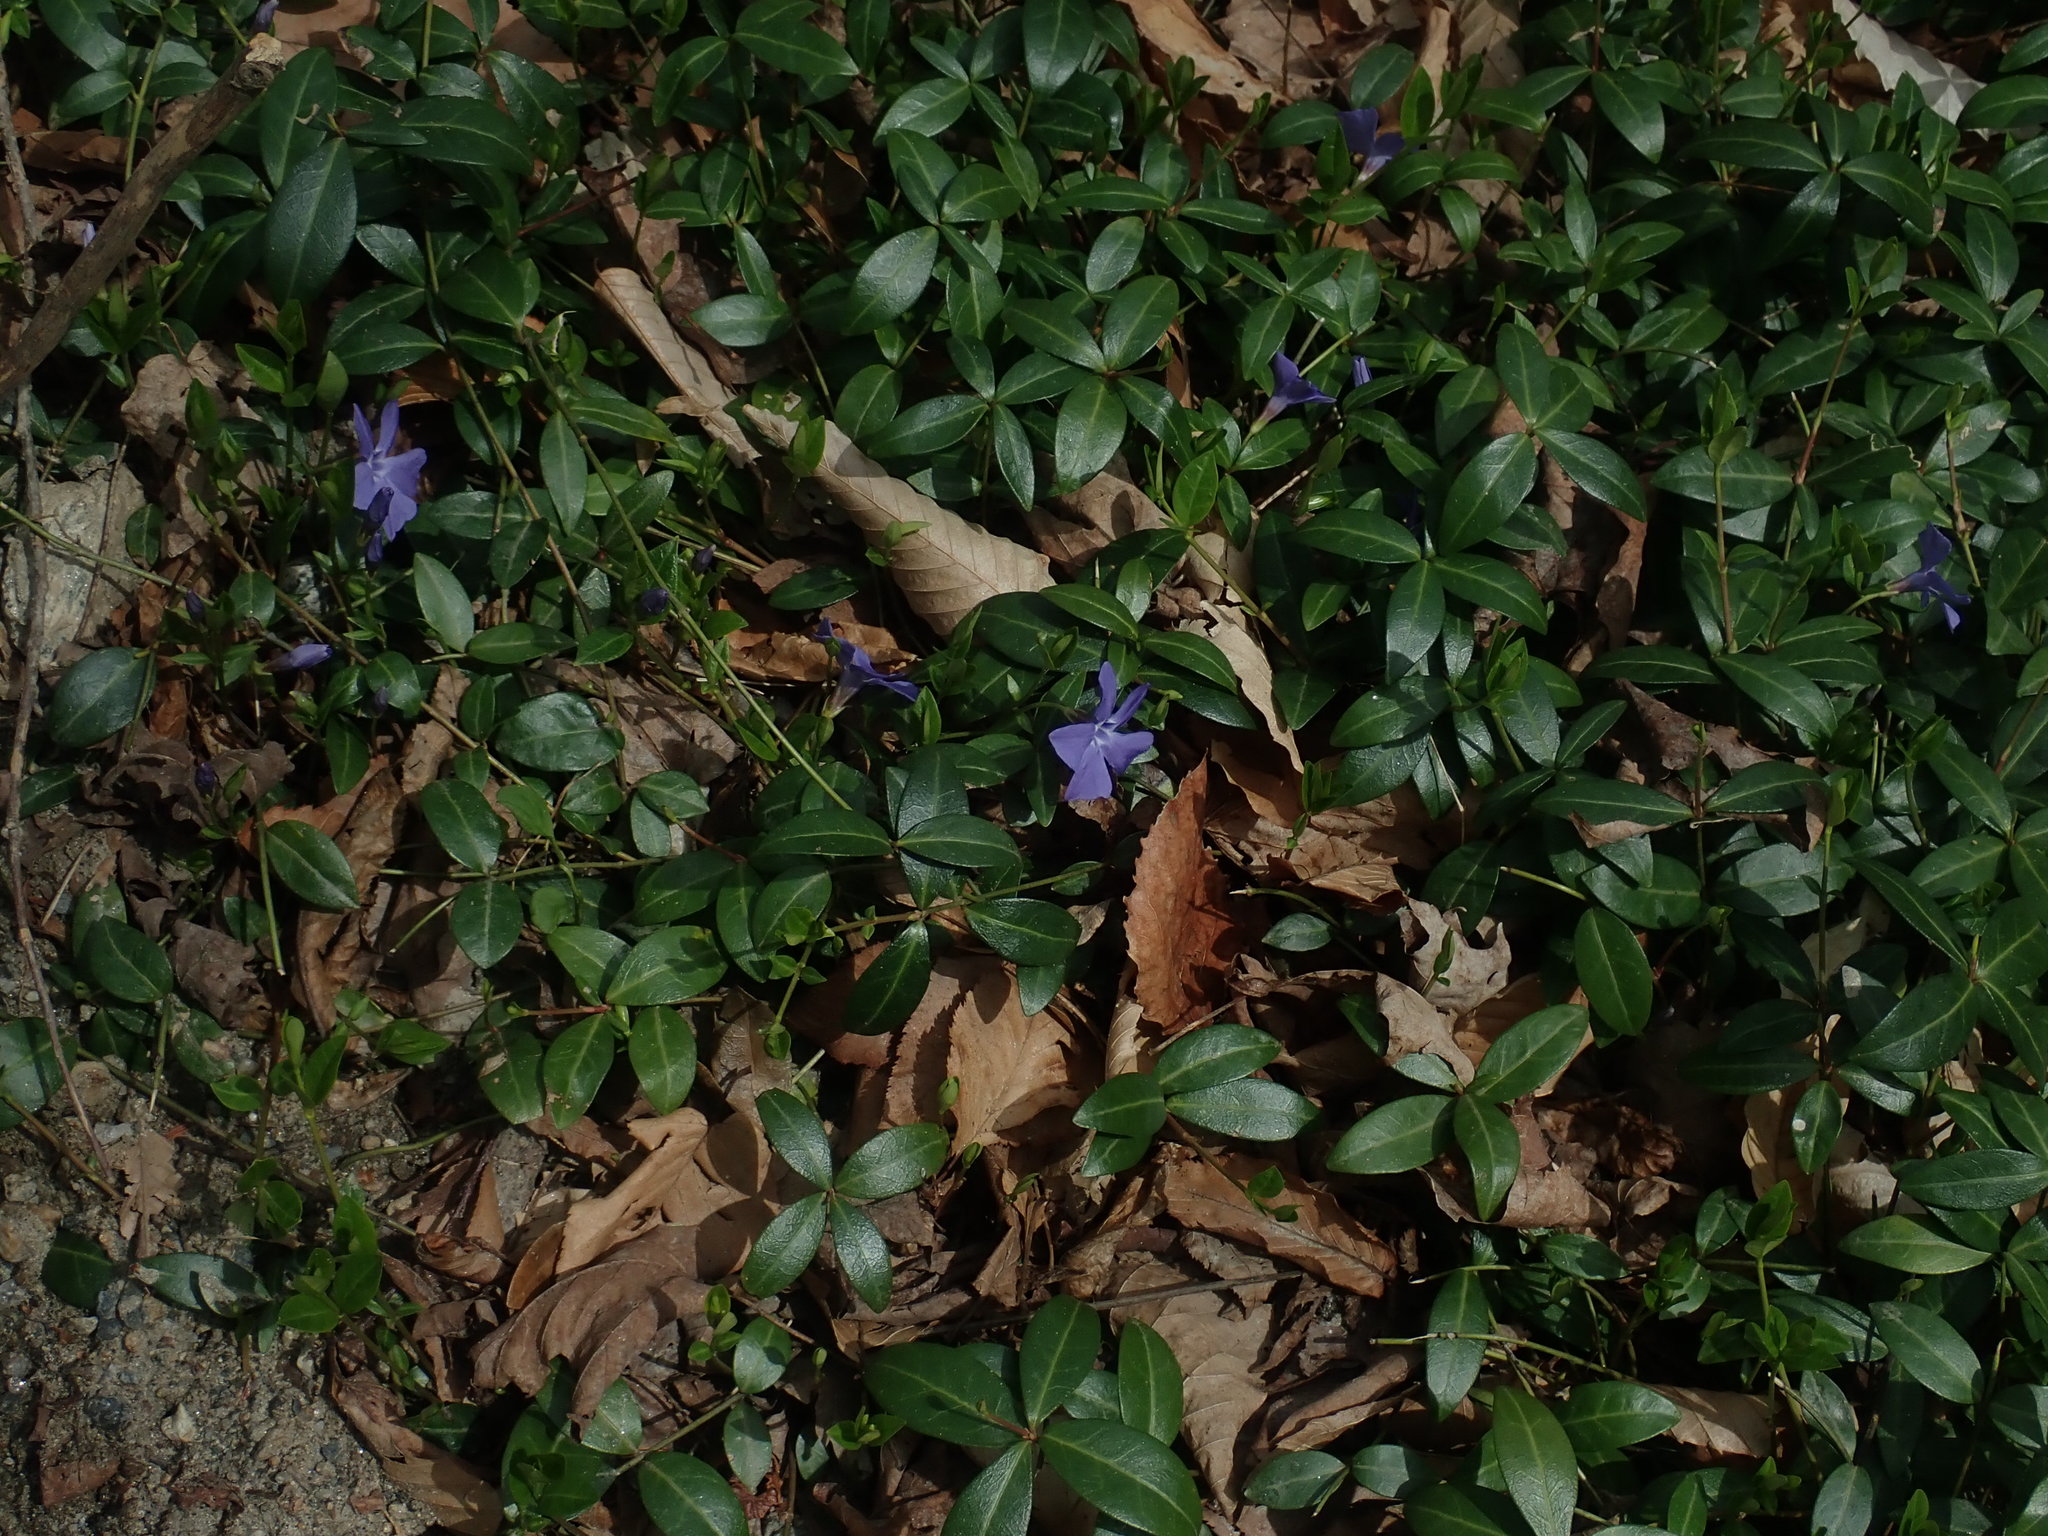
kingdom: Plantae
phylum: Tracheophyta
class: Magnoliopsida
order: Gentianales
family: Apocynaceae
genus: Vinca
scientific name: Vinca minor
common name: Lesser periwinkle
